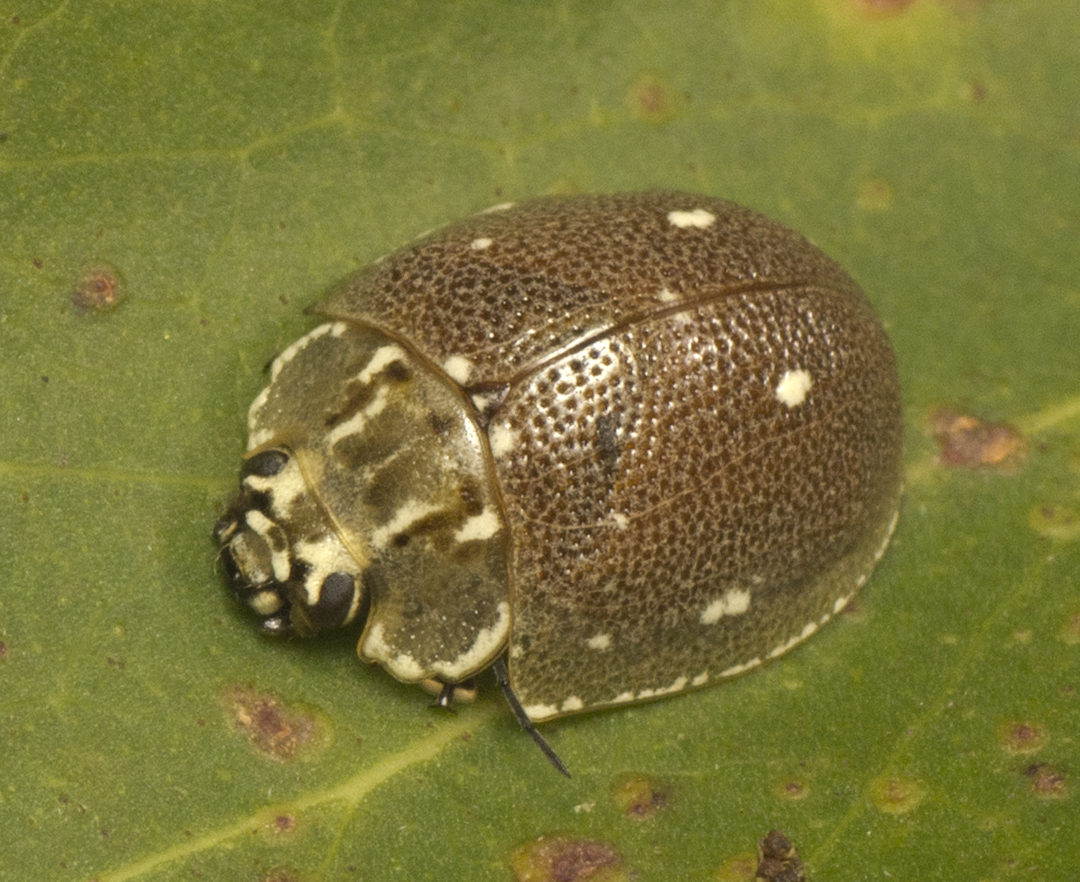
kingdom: Animalia
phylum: Arthropoda
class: Insecta
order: Coleoptera
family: Chrysomelidae
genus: Paropsis
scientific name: Paropsis aegrota
